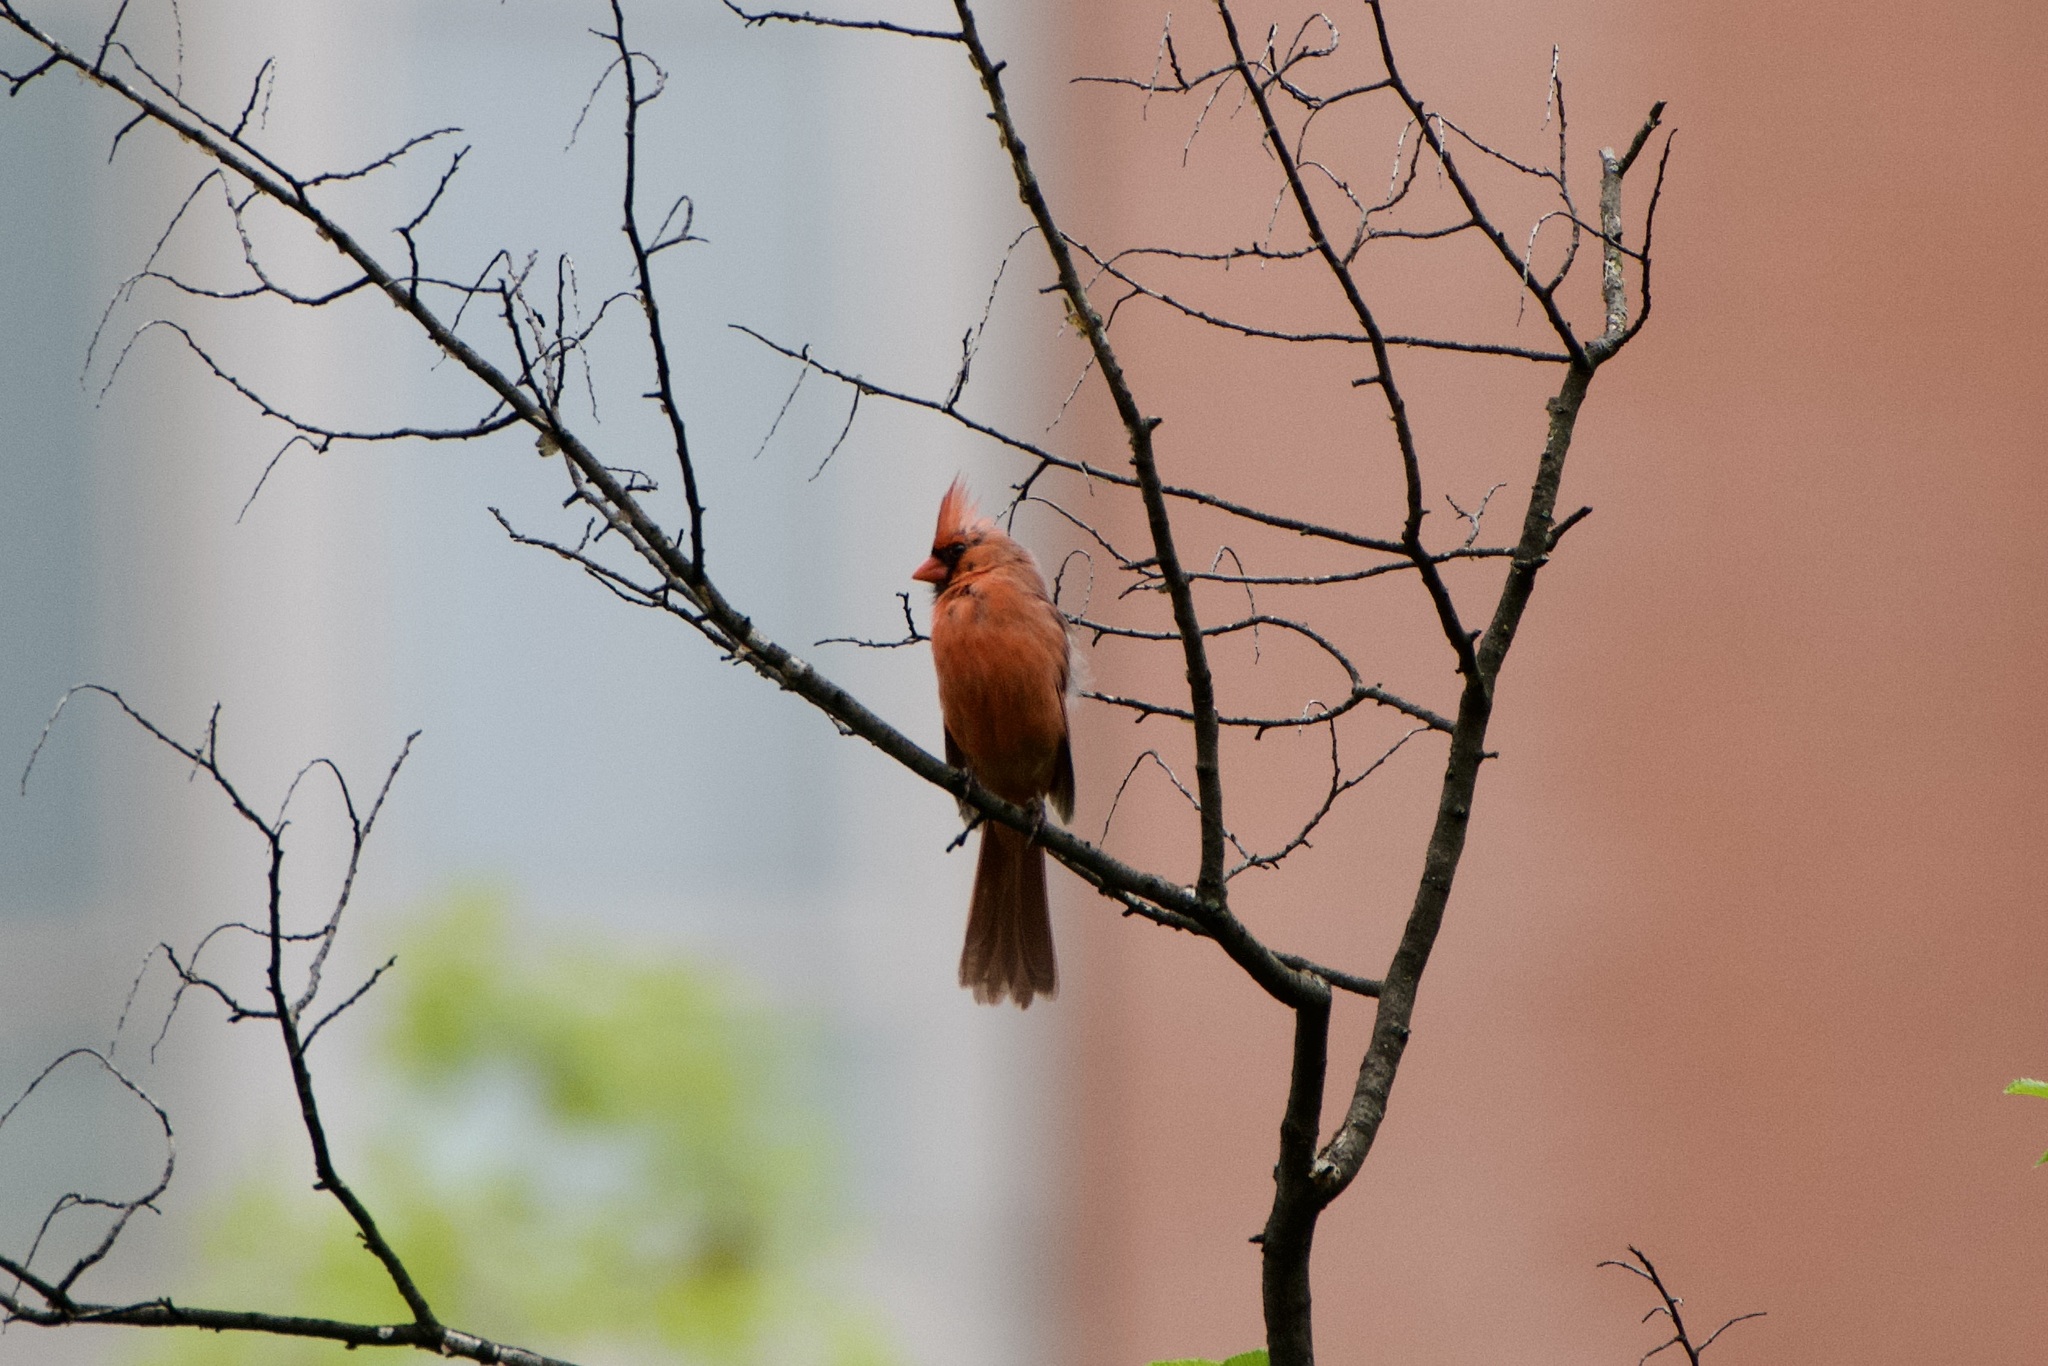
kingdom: Animalia
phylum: Chordata
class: Aves
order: Passeriformes
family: Cardinalidae
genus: Cardinalis
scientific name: Cardinalis cardinalis
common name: Northern cardinal
